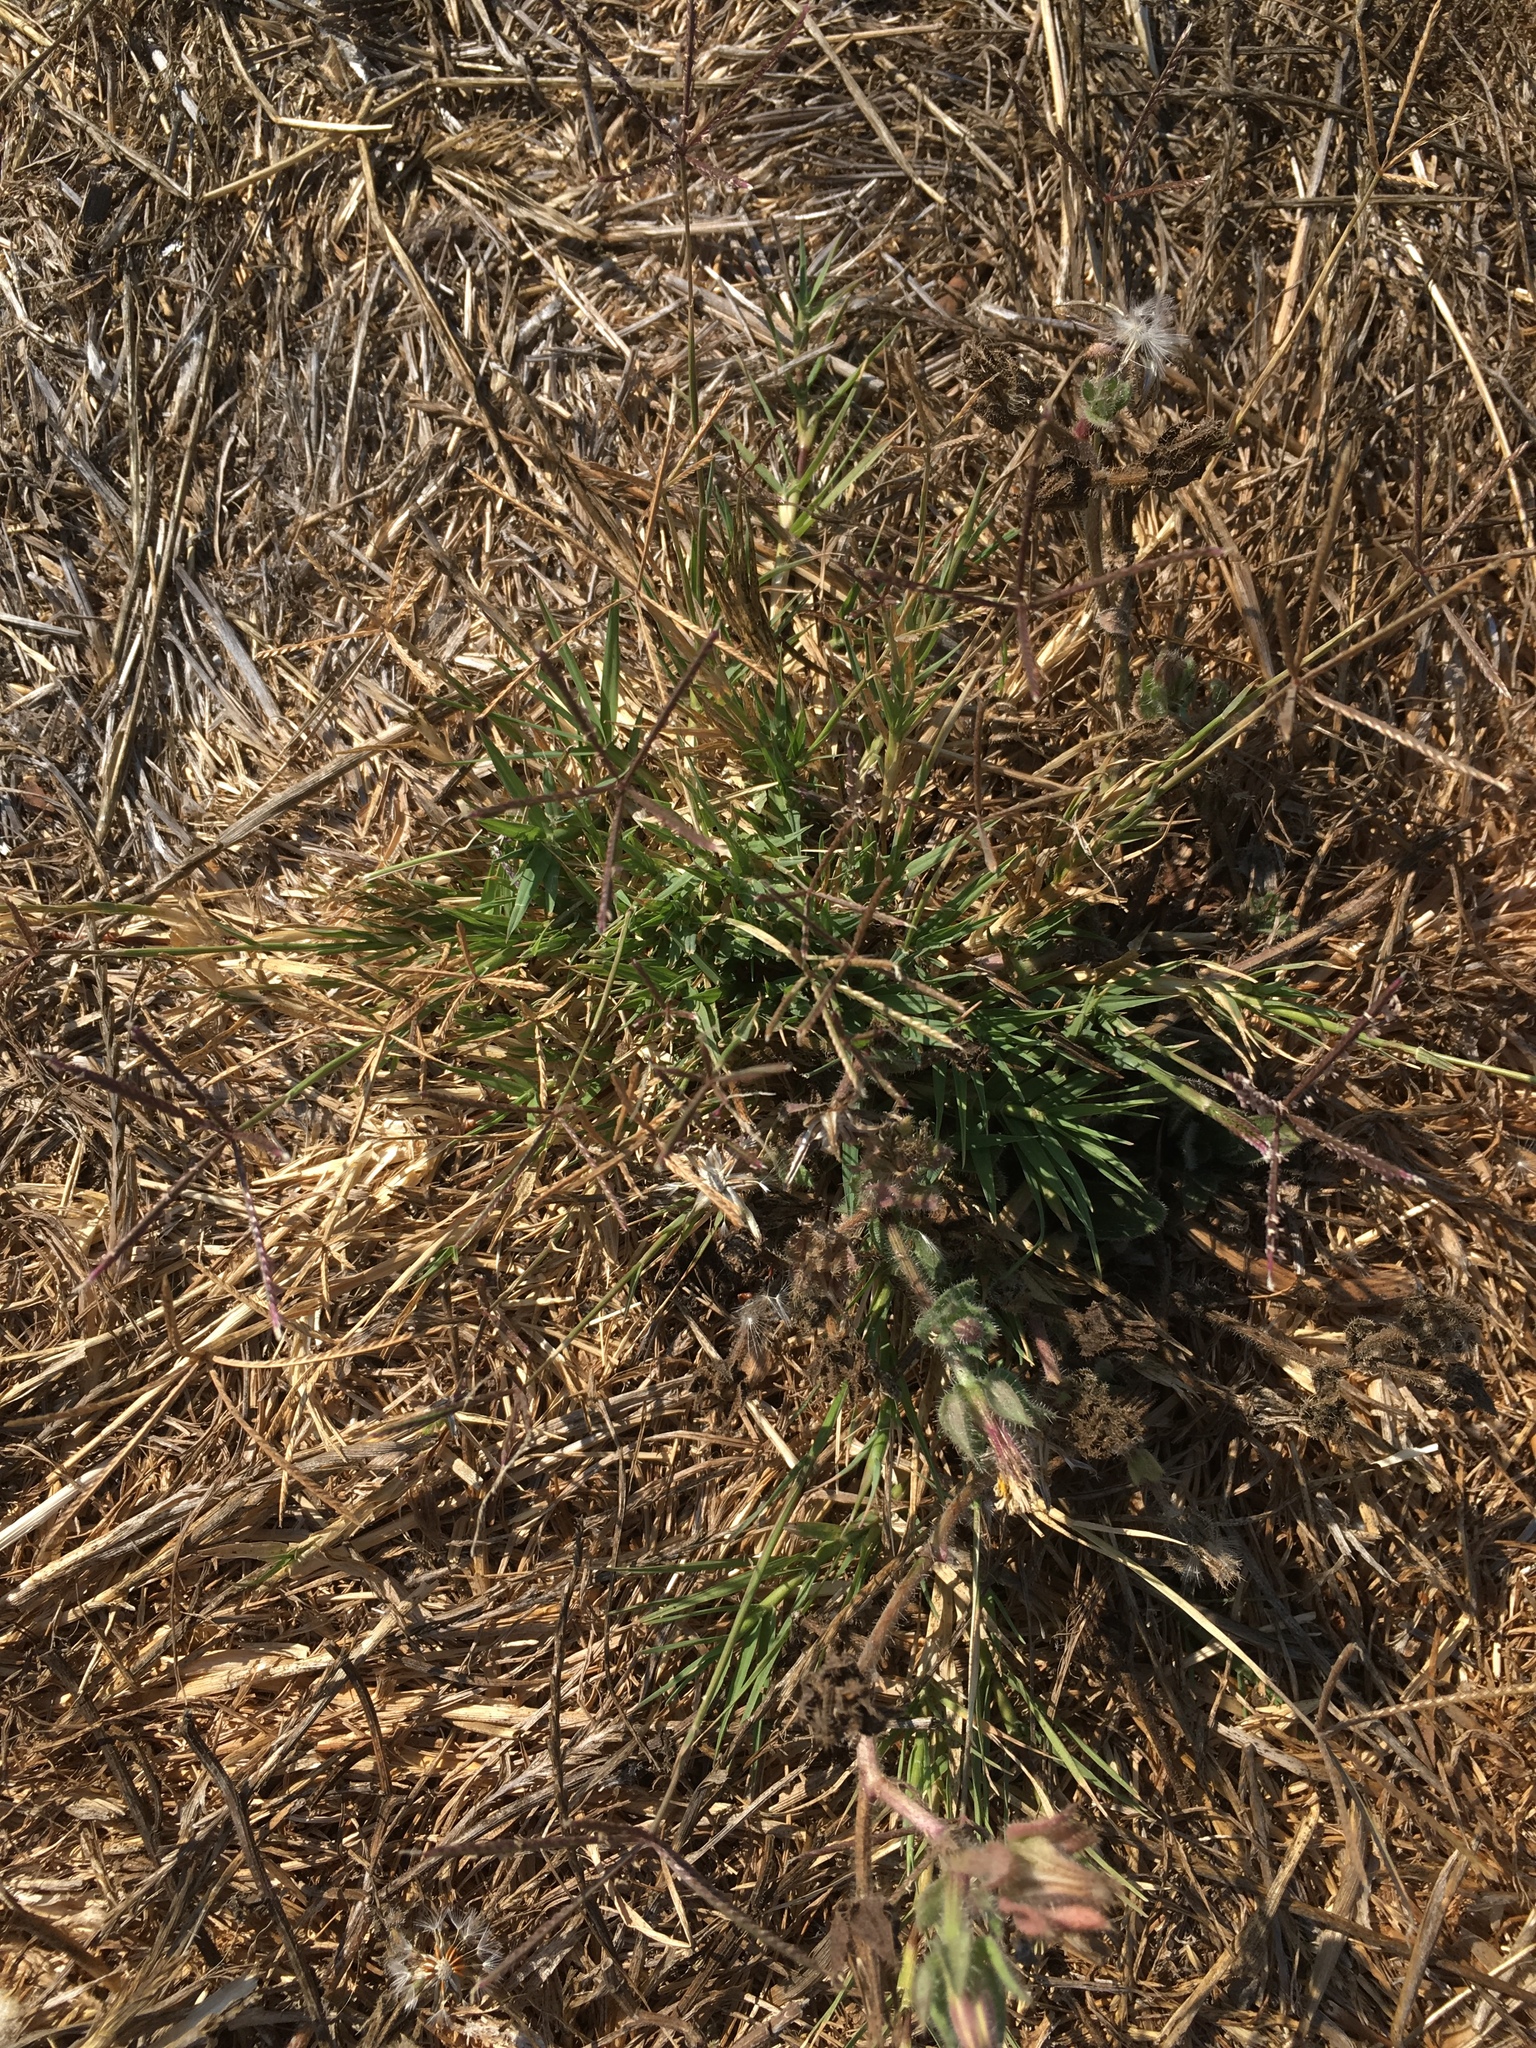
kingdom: Plantae
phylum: Tracheophyta
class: Liliopsida
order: Poales
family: Poaceae
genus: Cynodon
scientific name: Cynodon dactylon
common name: Bermuda grass
